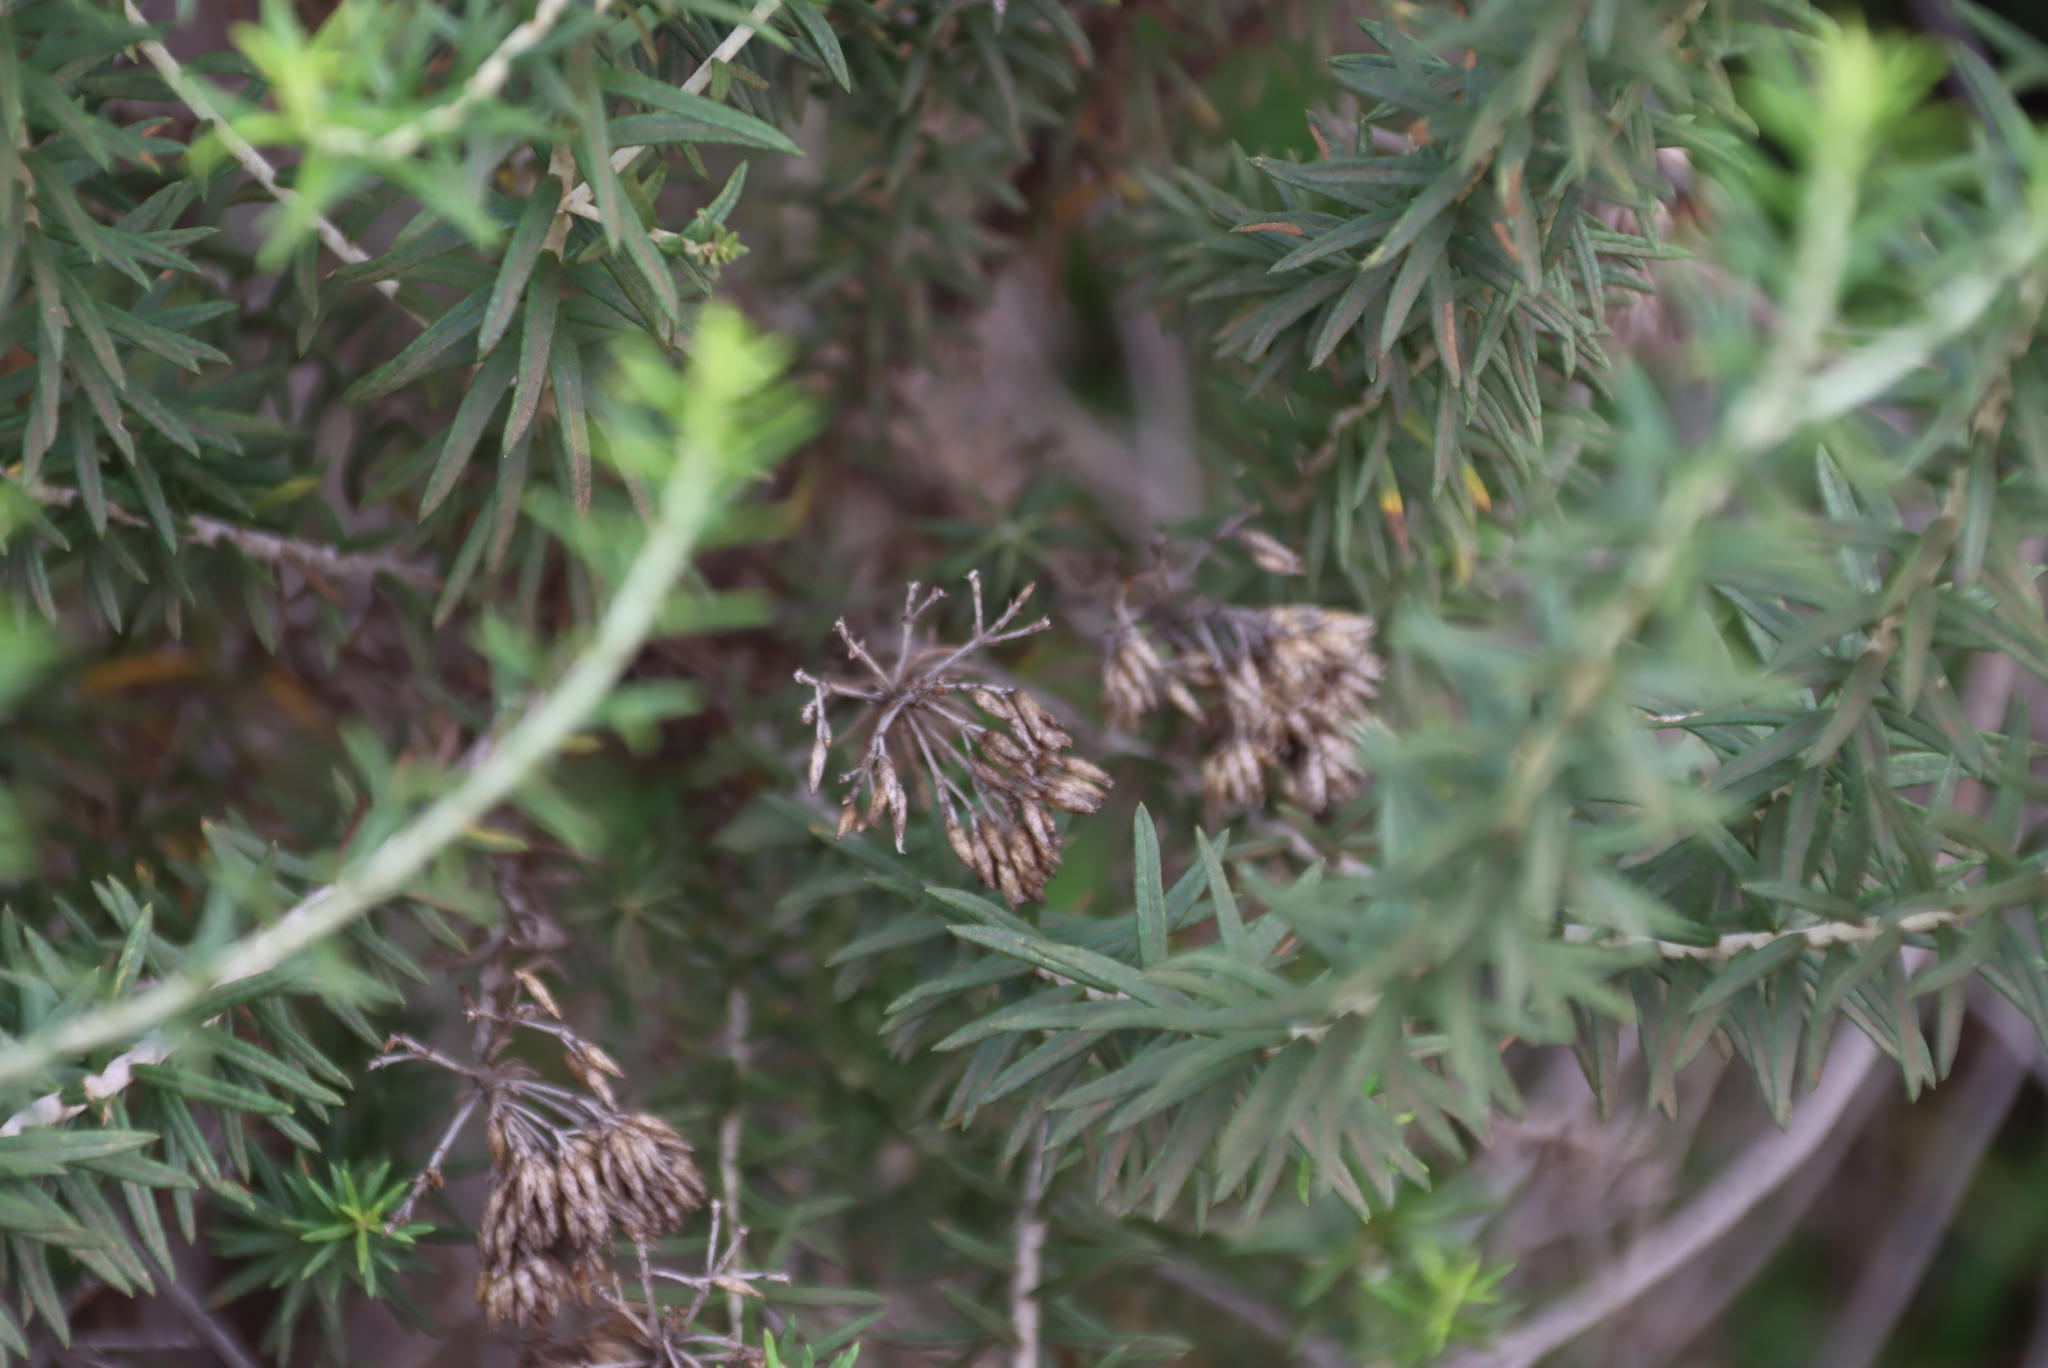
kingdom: Plantae
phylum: Tracheophyta
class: Magnoliopsida
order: Asterales
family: Asteraceae
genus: Helichrysum
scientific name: Helichrysum kraussii
